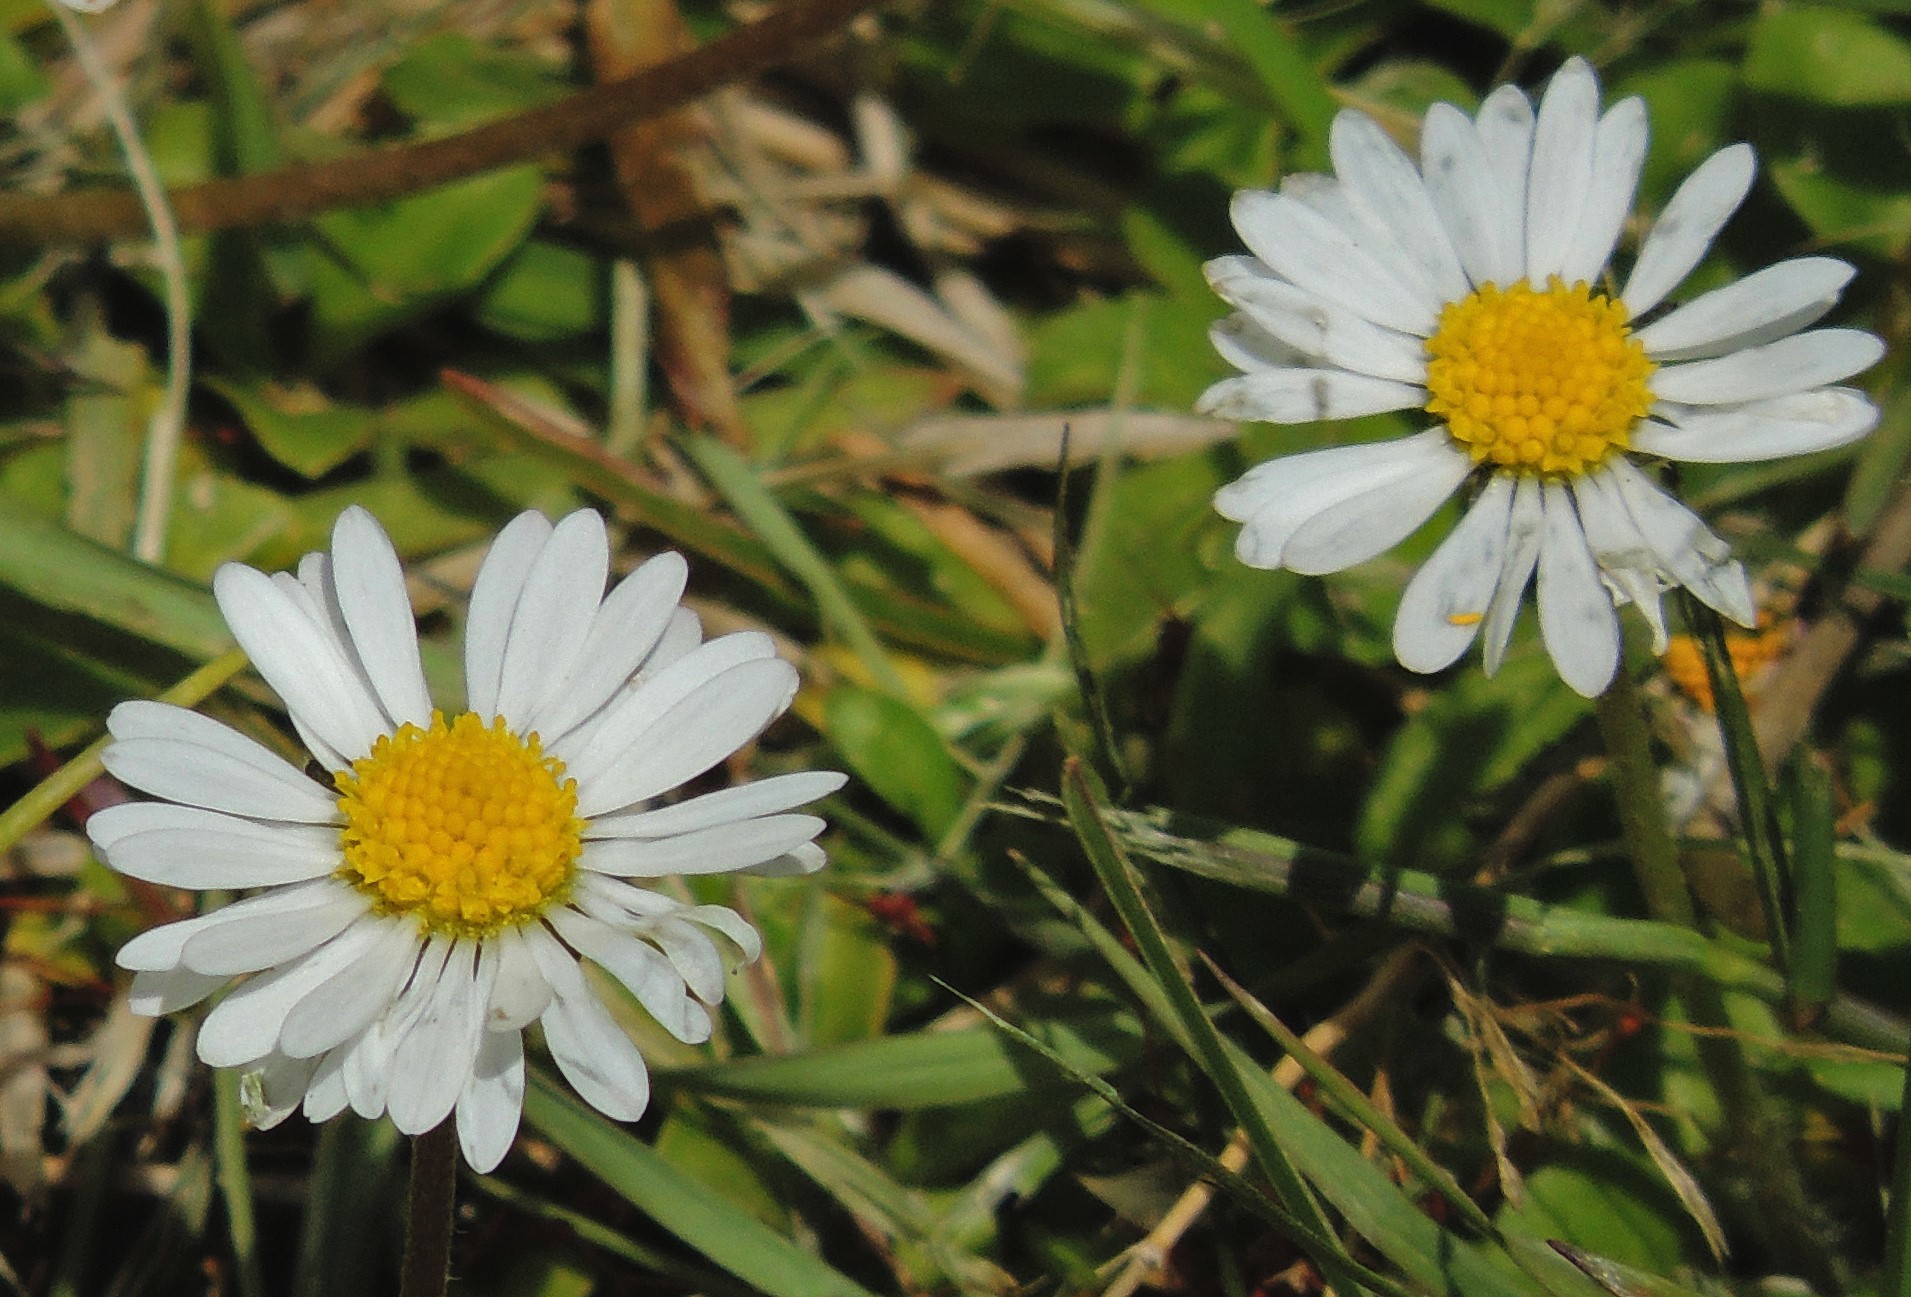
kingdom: Plantae
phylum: Tracheophyta
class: Magnoliopsida
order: Asterales
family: Asteraceae
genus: Leucanthemum
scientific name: Leucanthemum vulgare
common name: Oxeye daisy
